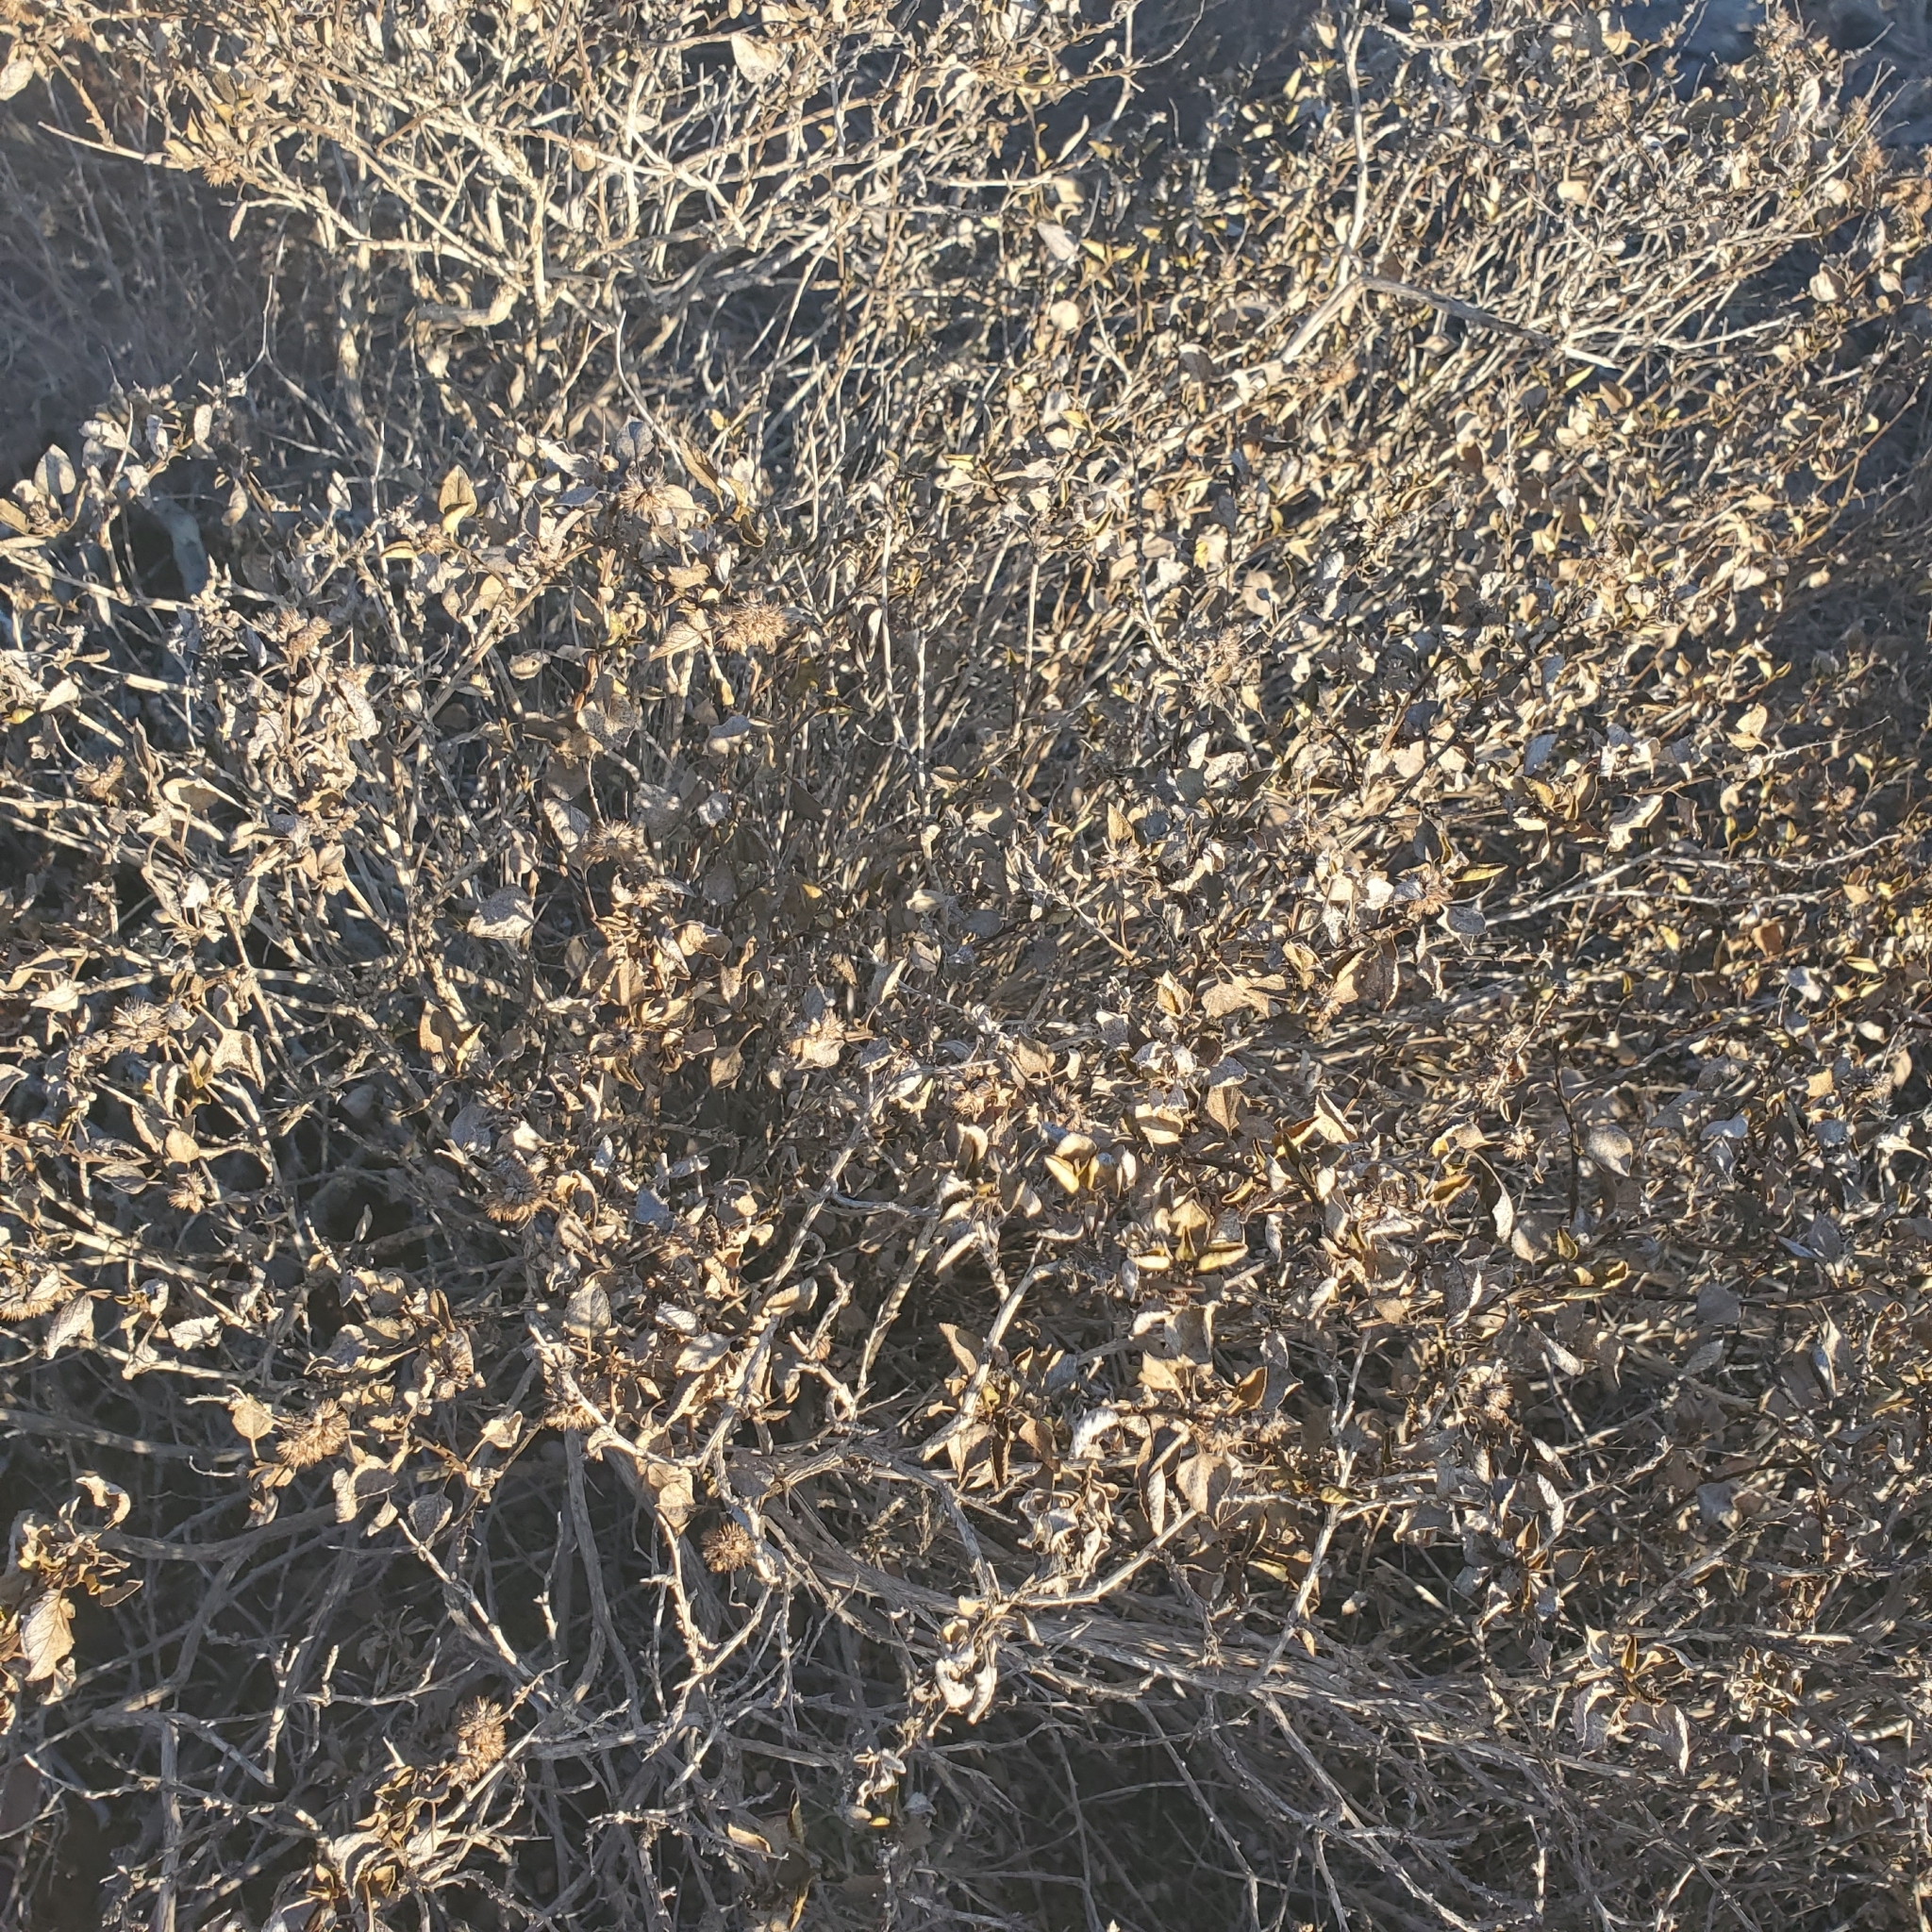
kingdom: Plantae
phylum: Tracheophyta
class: Magnoliopsida
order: Asterales
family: Asteraceae
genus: Ambrosia
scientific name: Ambrosia chenopodiifolia
